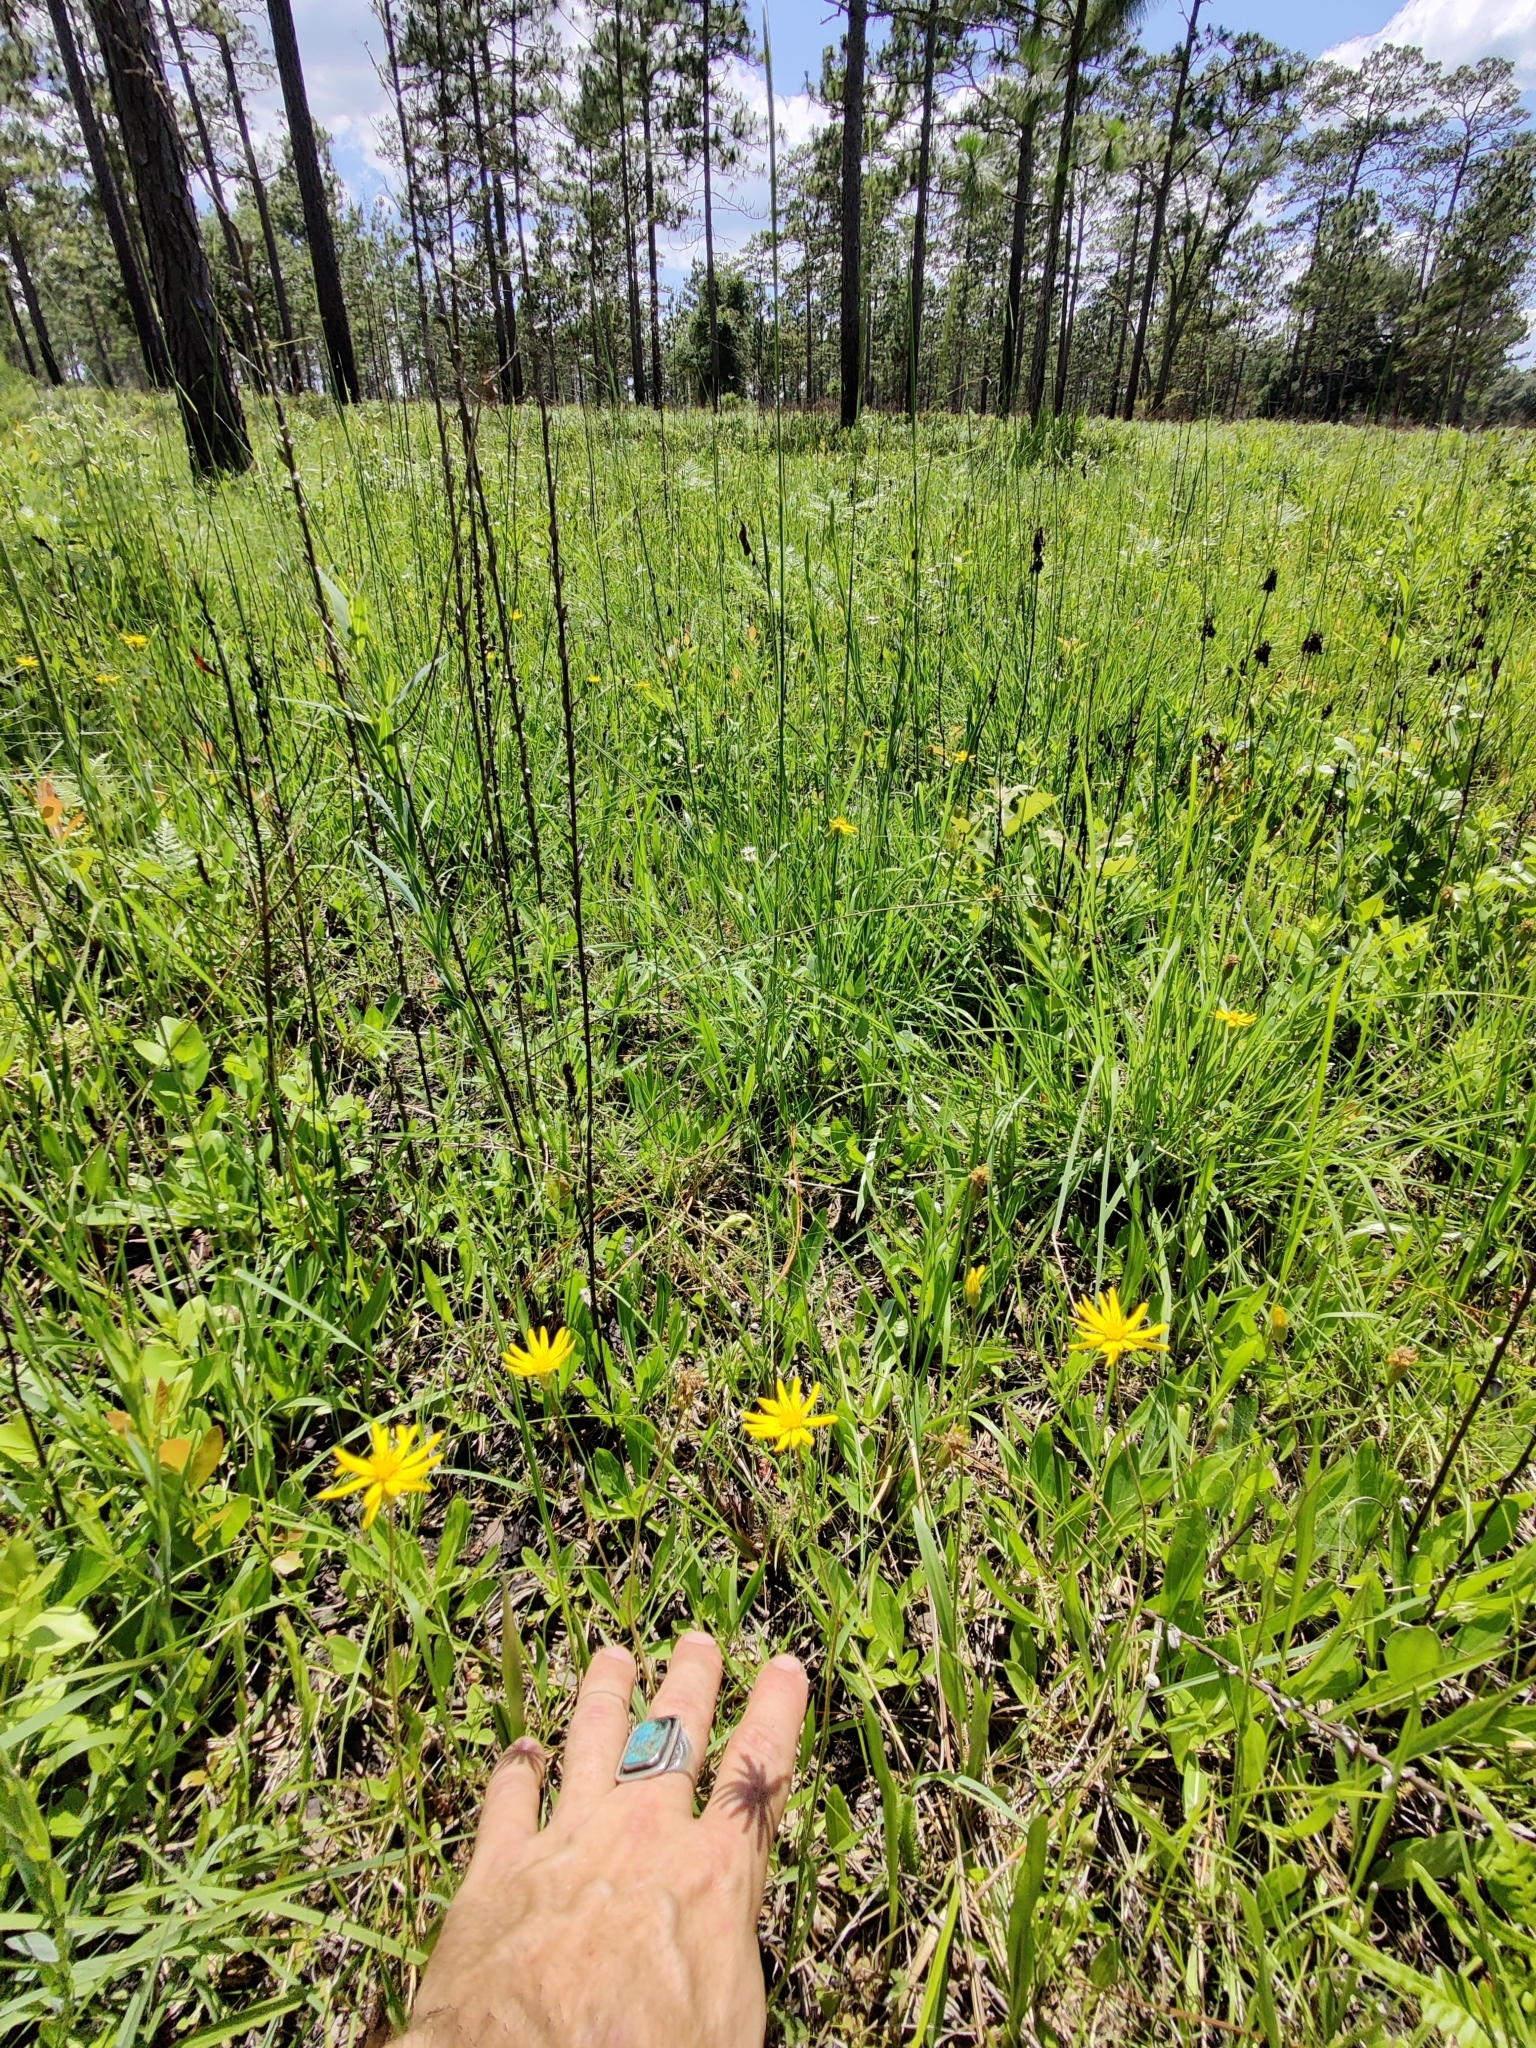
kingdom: Plantae
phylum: Tracheophyta
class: Magnoliopsida
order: Asterales
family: Asteraceae
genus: Pityopsis
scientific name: Pityopsis oligantha
